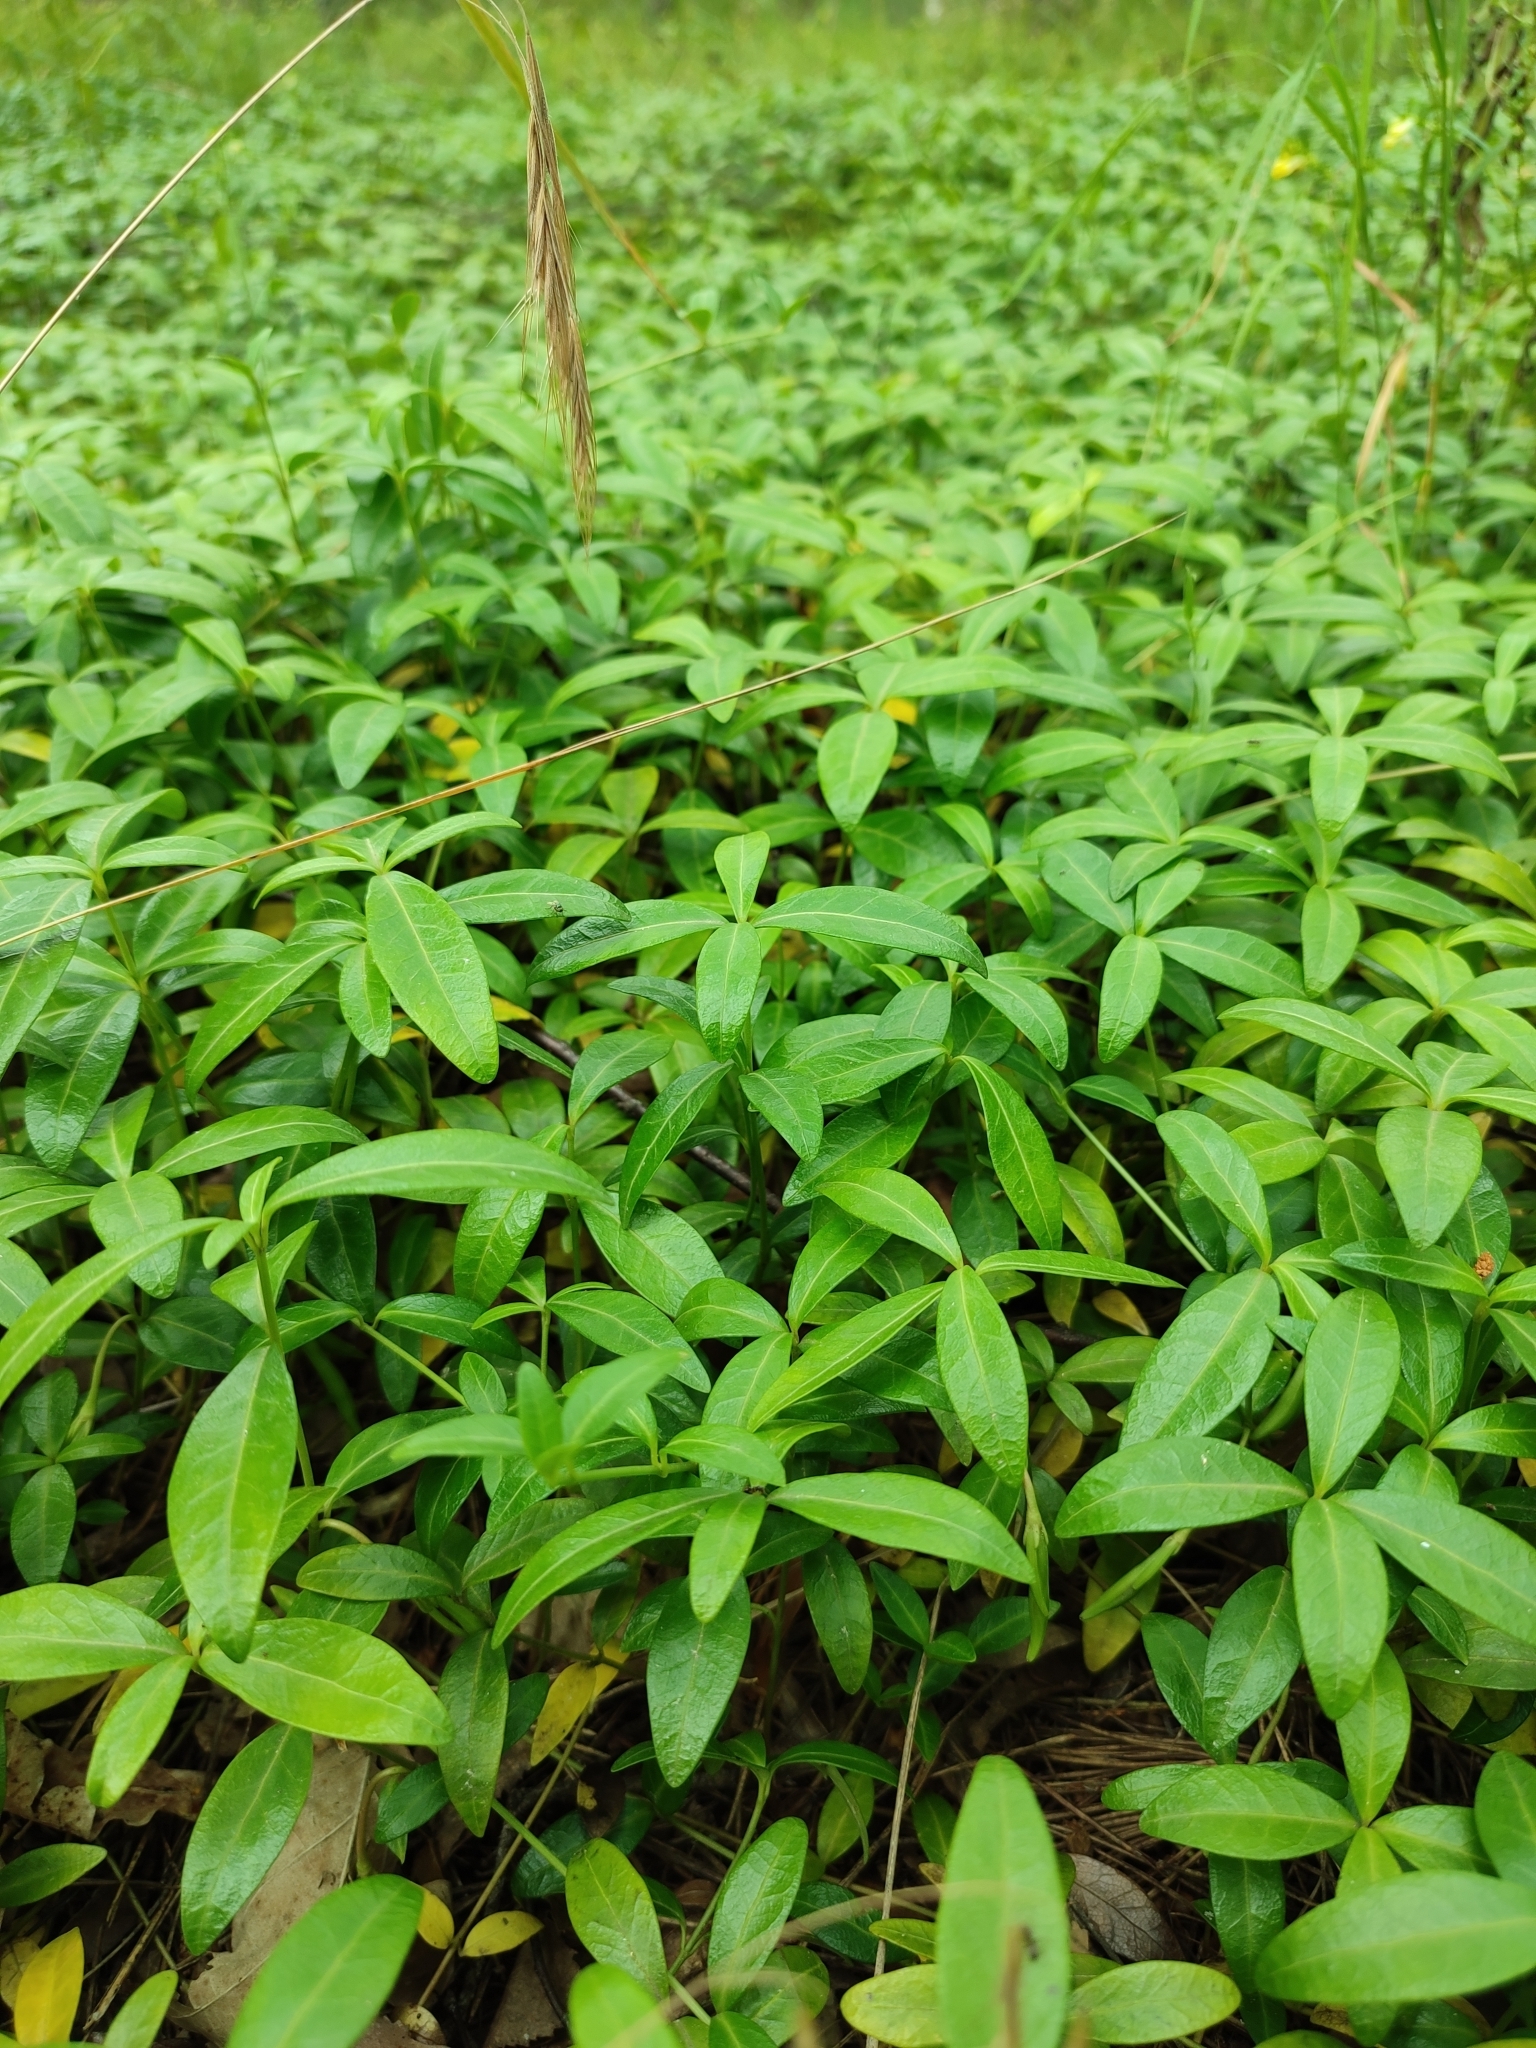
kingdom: Plantae
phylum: Tracheophyta
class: Magnoliopsida
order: Gentianales
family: Apocynaceae
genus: Vinca
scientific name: Vinca minor
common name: Lesser periwinkle
